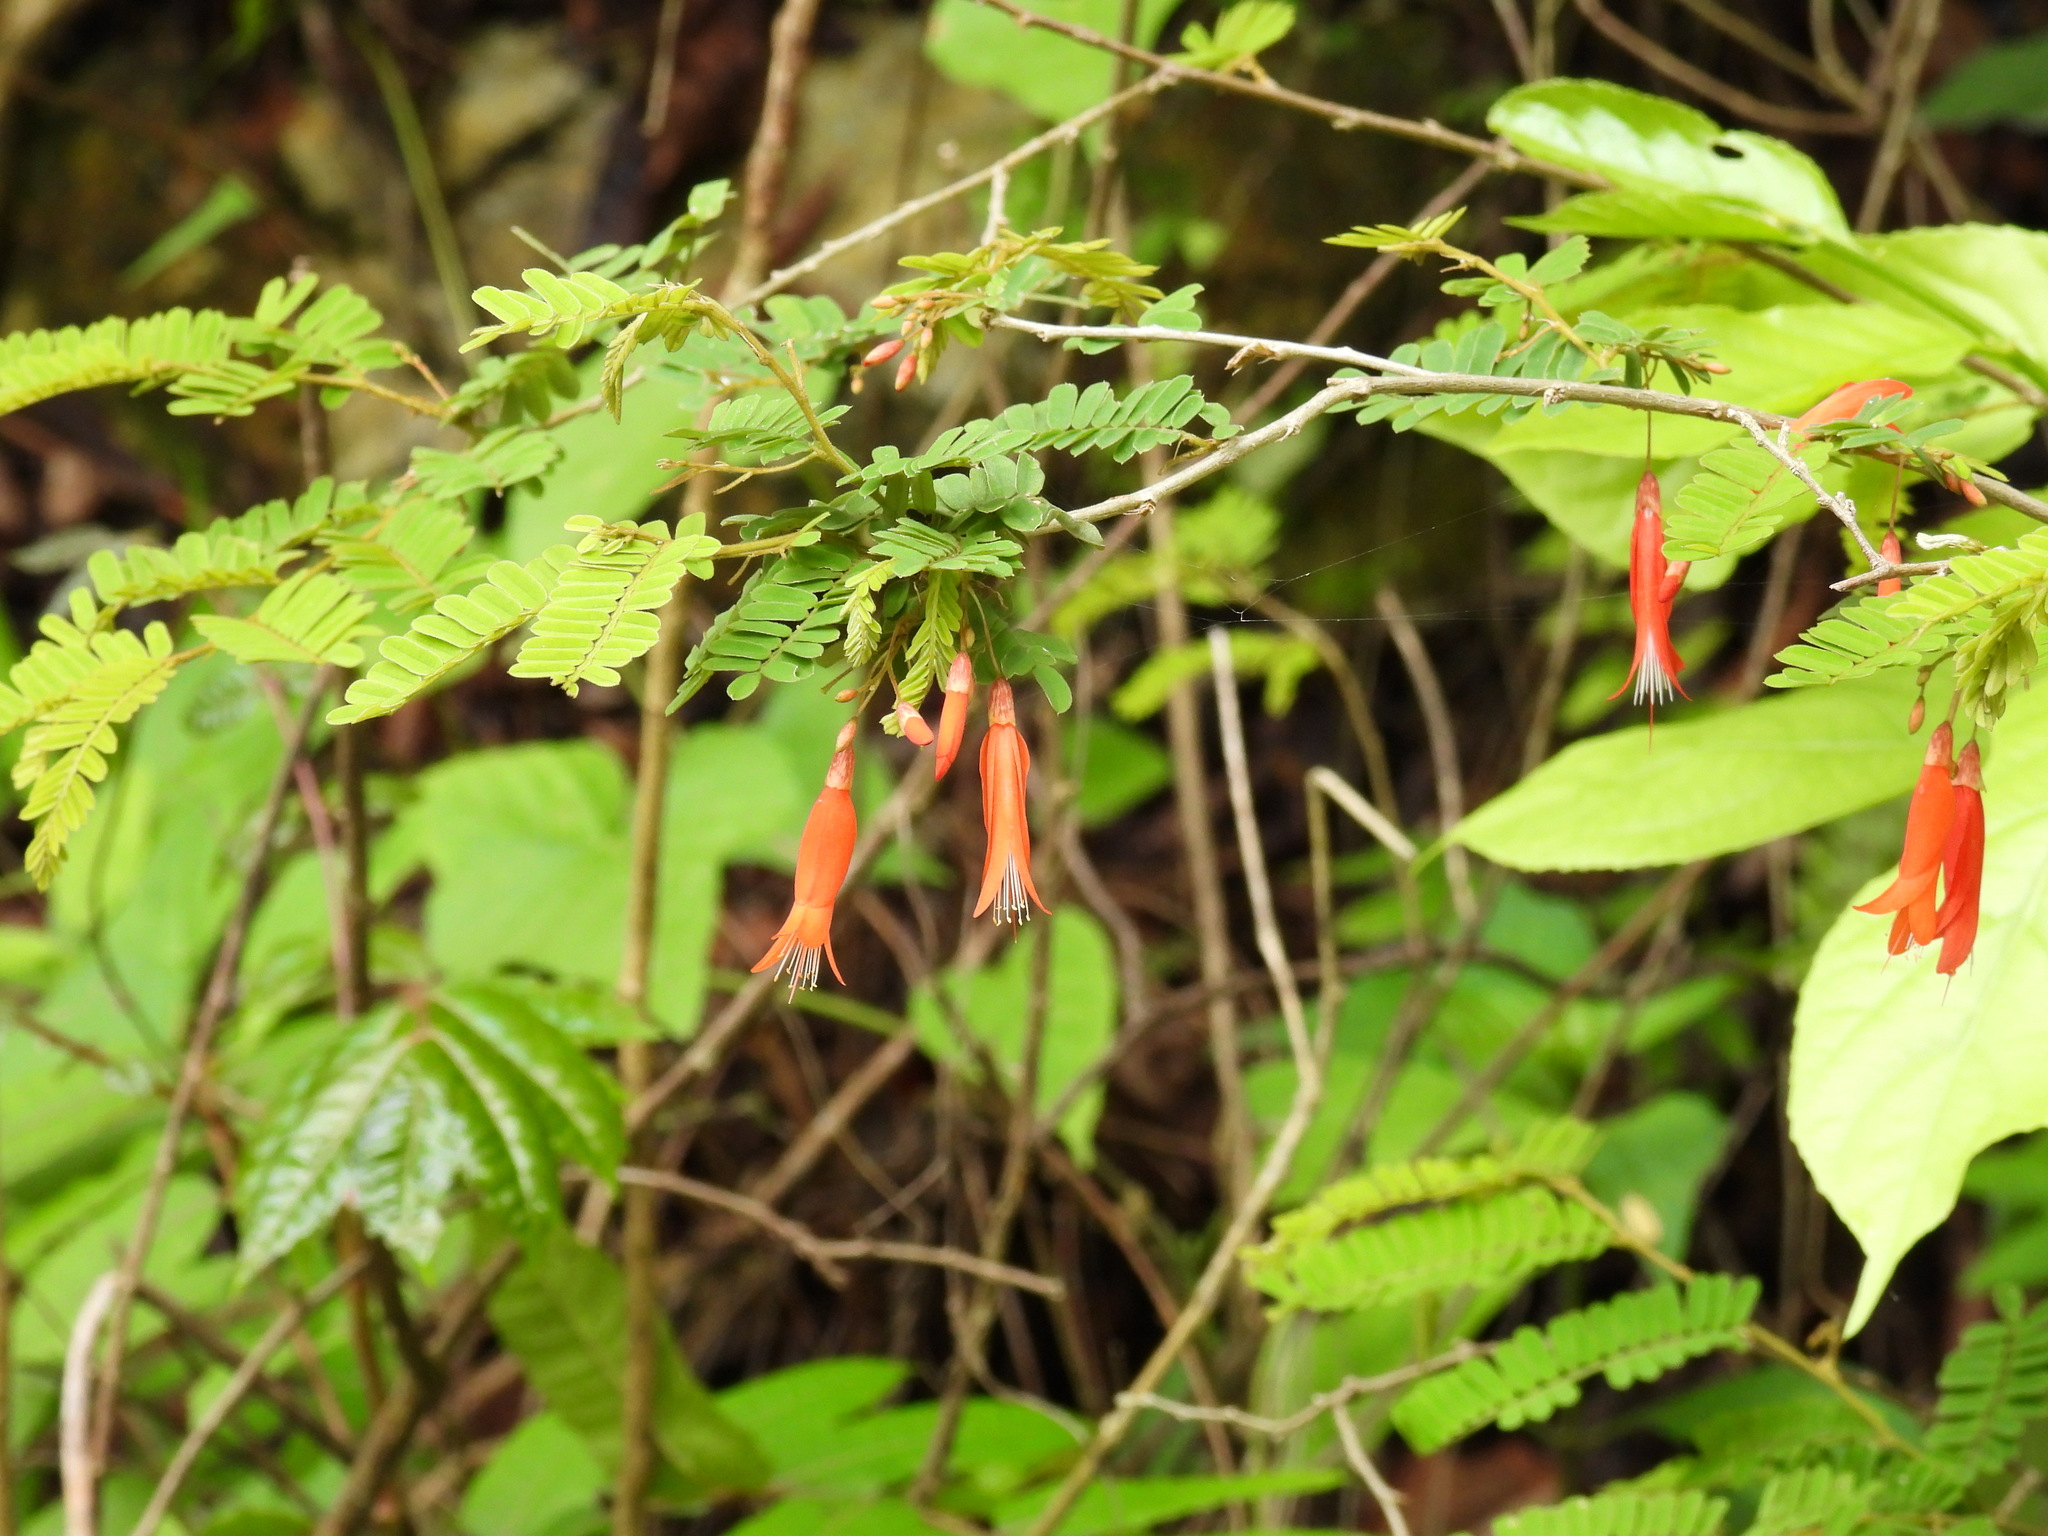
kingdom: Plantae
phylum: Tracheophyta
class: Magnoliopsida
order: Fabales
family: Fabaceae
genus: Poitea
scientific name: Poitea galegoides
